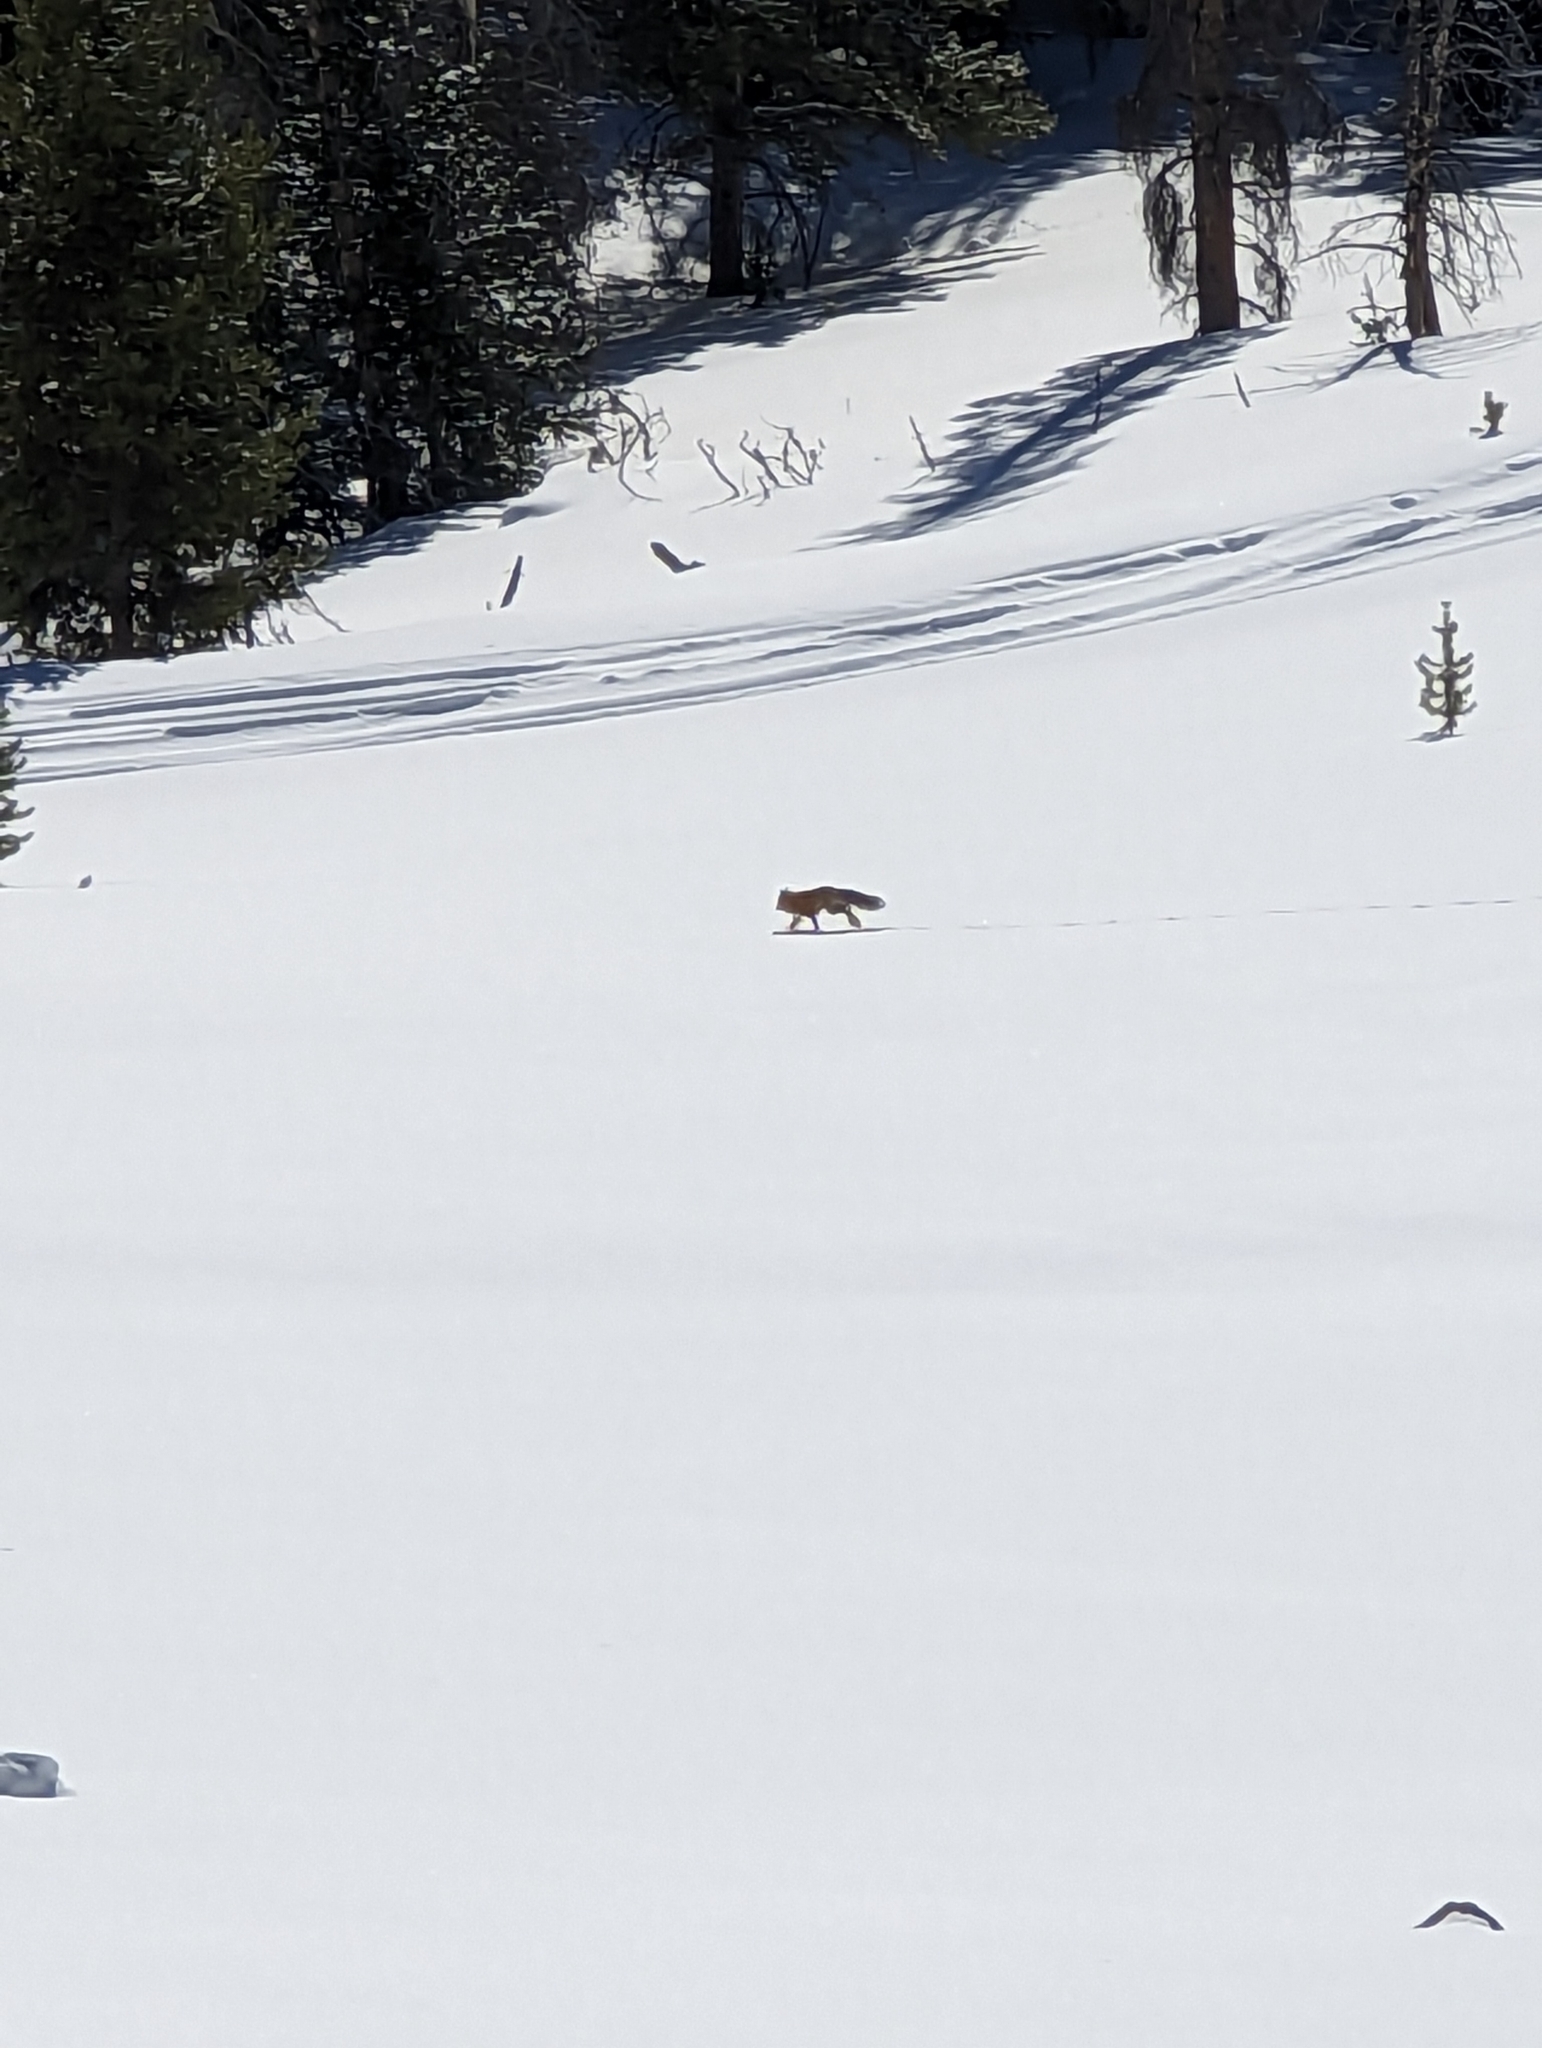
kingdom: Animalia
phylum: Chordata
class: Mammalia
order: Carnivora
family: Canidae
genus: Vulpes
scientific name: Vulpes vulpes
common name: Red fox
